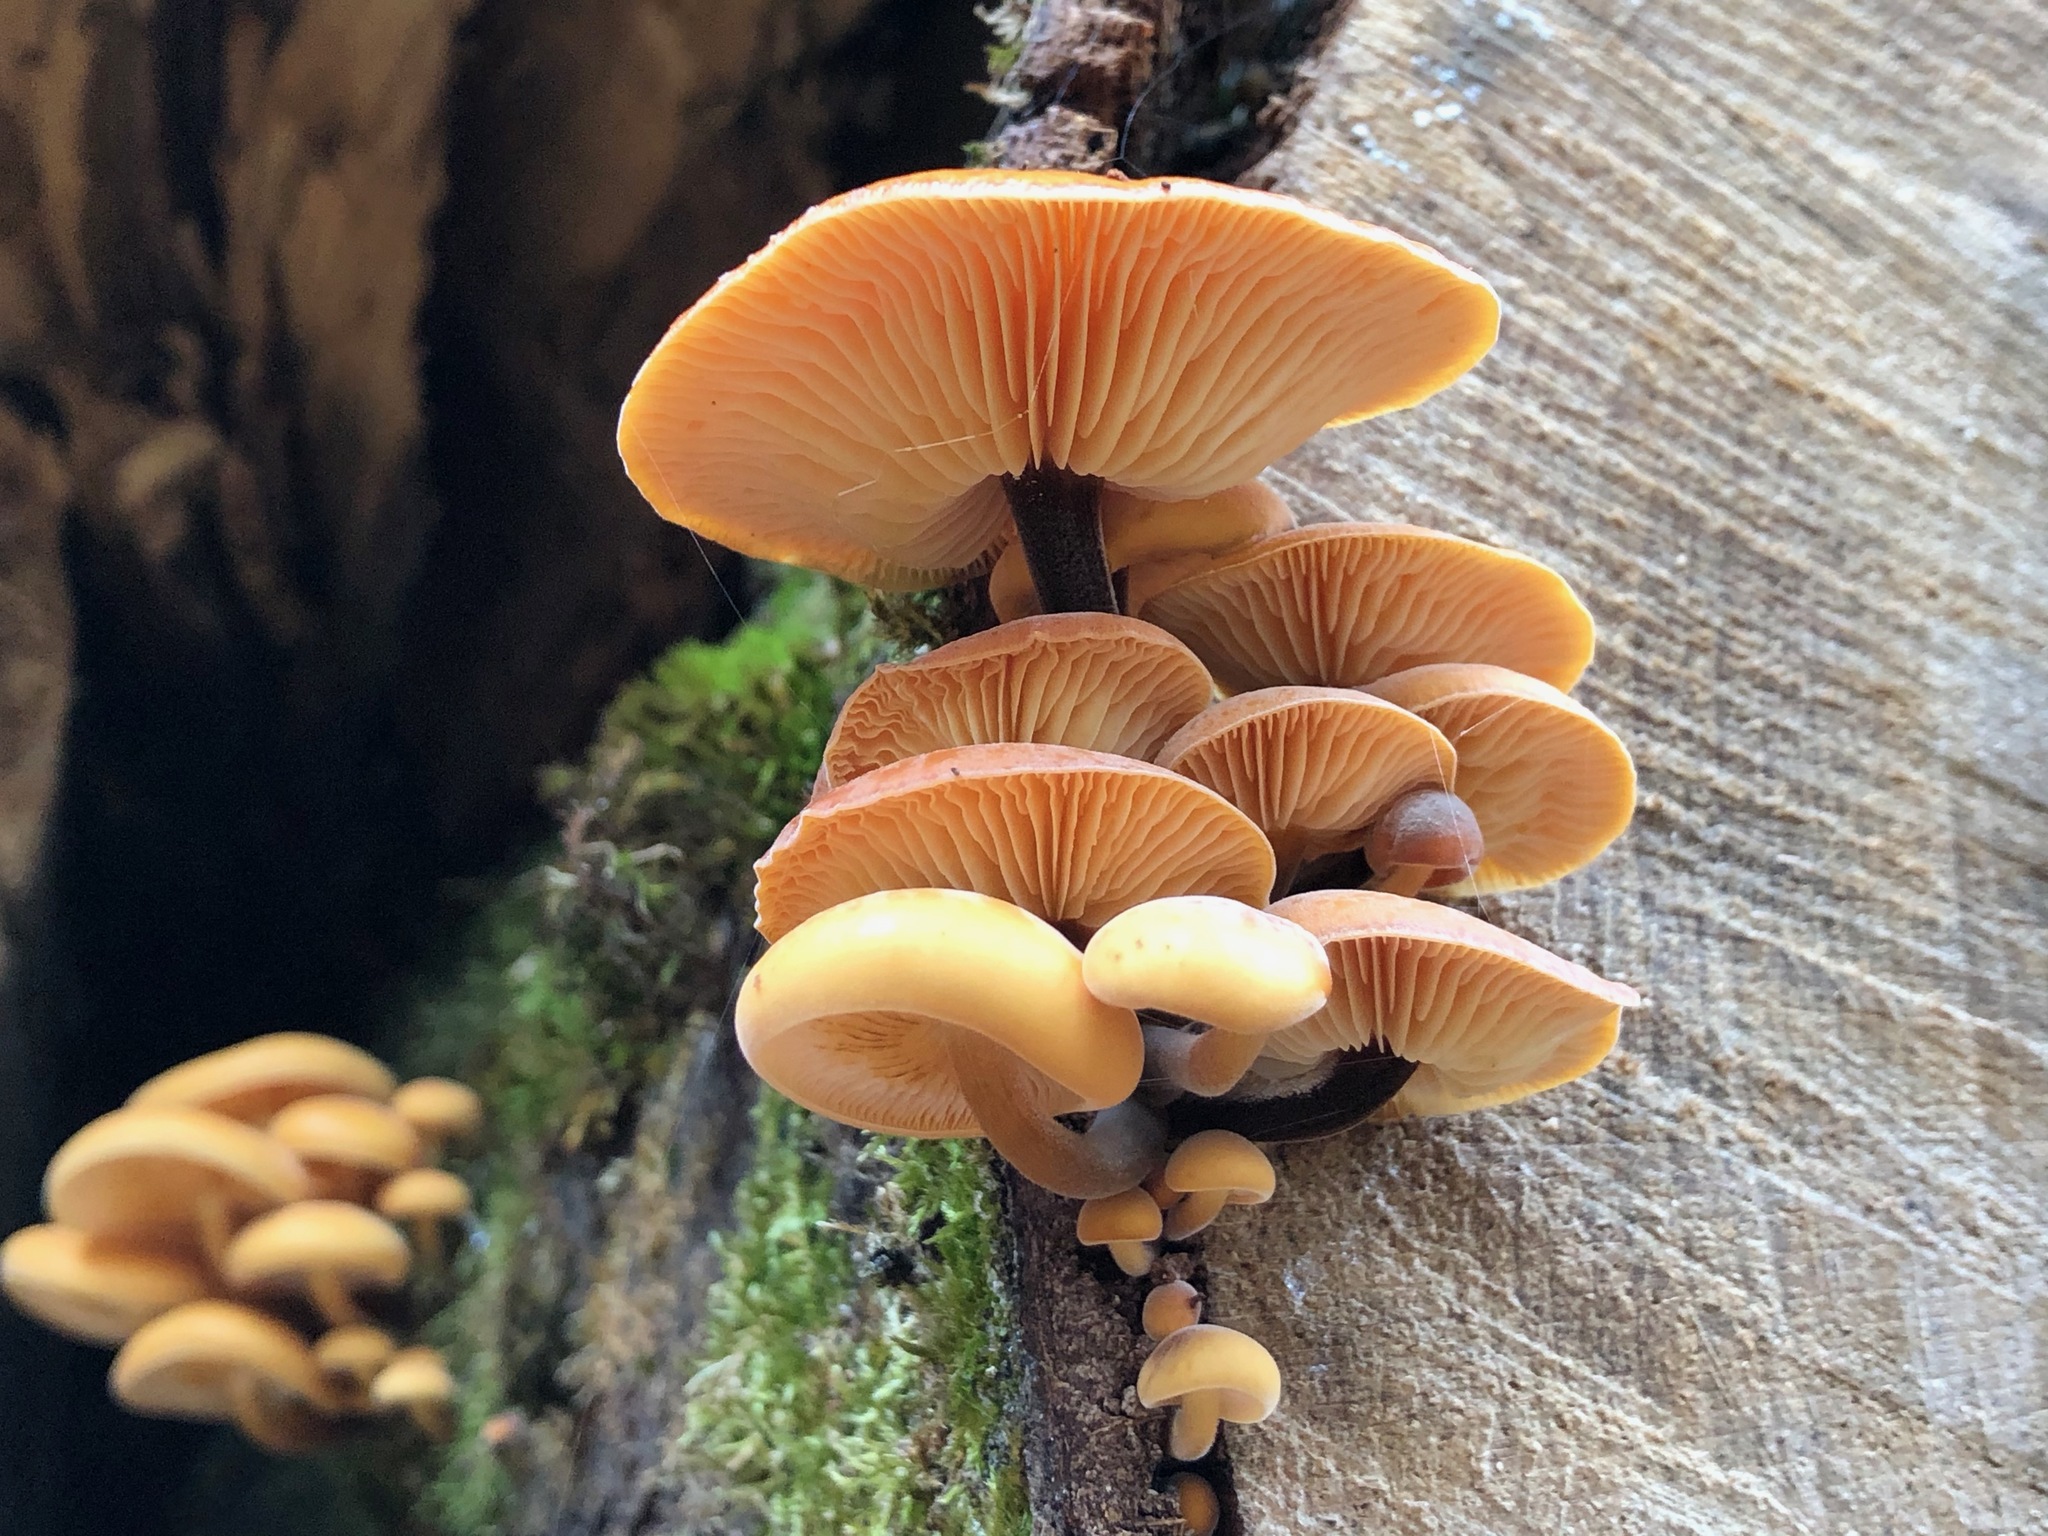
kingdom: Fungi
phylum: Basidiomycota
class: Agaricomycetes
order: Agaricales
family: Physalacriaceae
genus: Flammulina
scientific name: Flammulina
